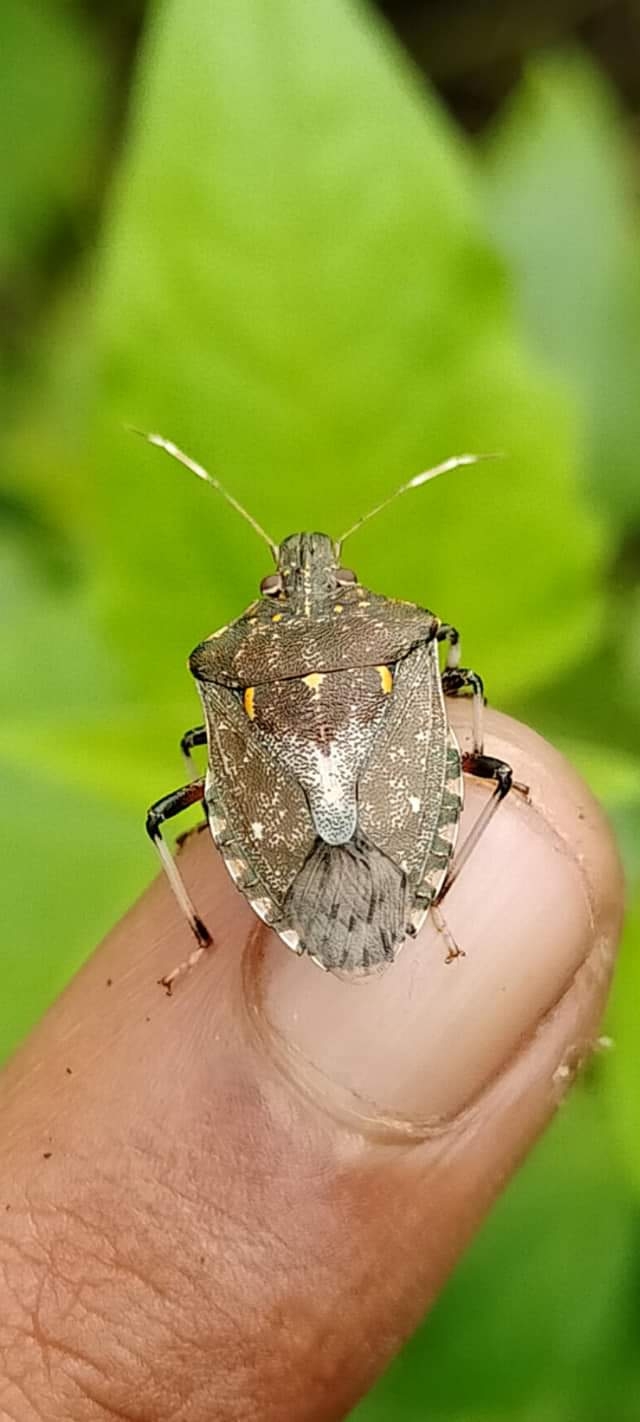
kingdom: Animalia
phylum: Arthropoda
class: Insecta
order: Hemiptera
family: Pentatomidae
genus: Halyomorpha
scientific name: Halyomorpha
